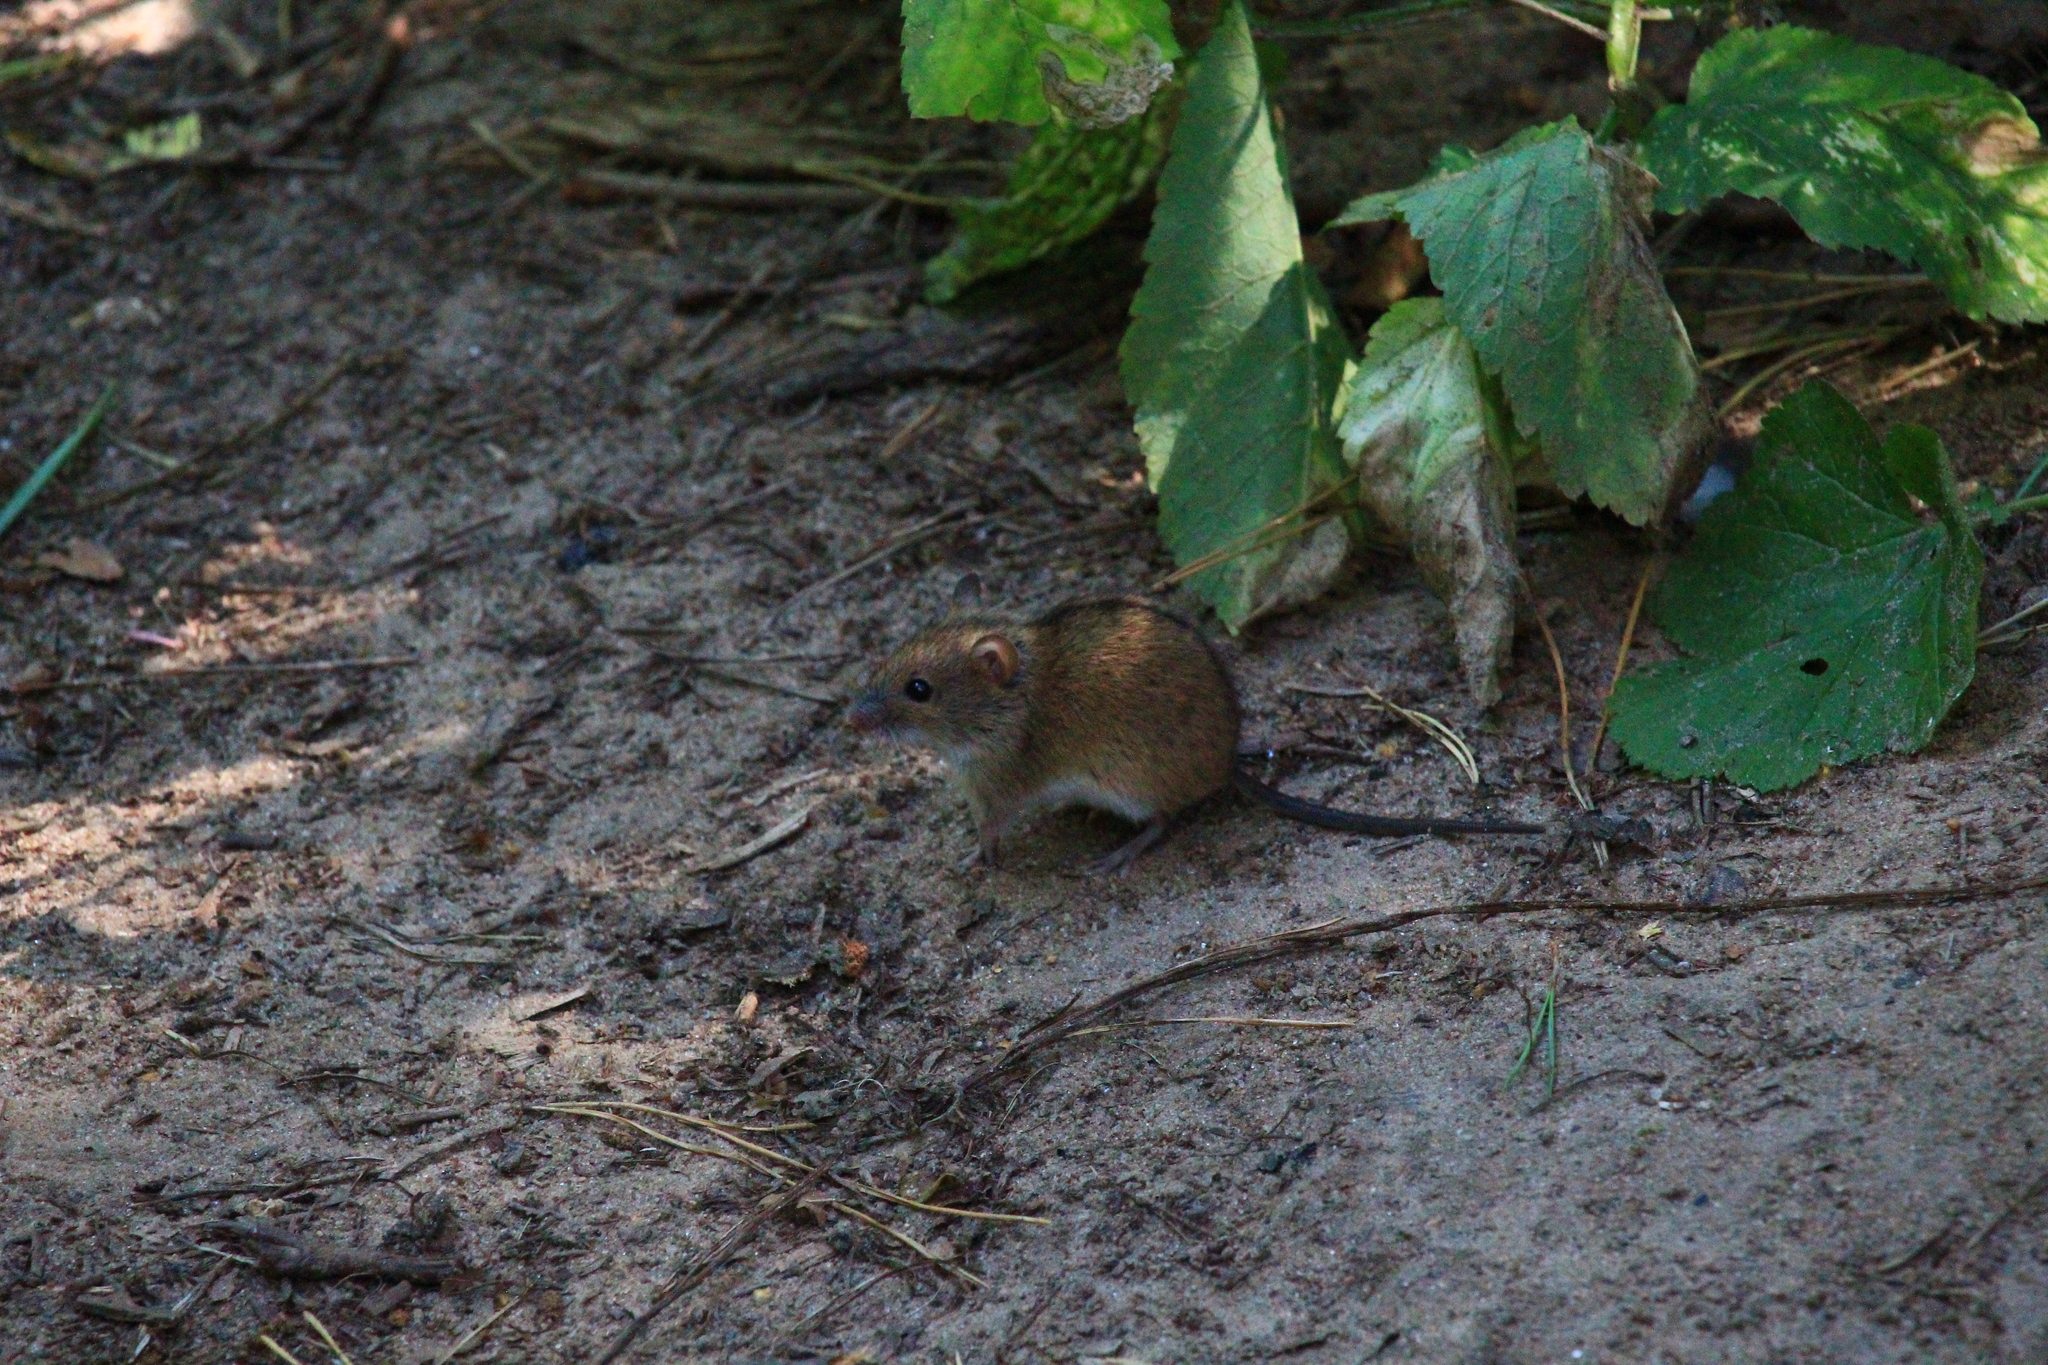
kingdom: Animalia
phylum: Chordata
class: Mammalia
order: Rodentia
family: Muridae
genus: Apodemus
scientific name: Apodemus agrarius
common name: Striped field mouse
